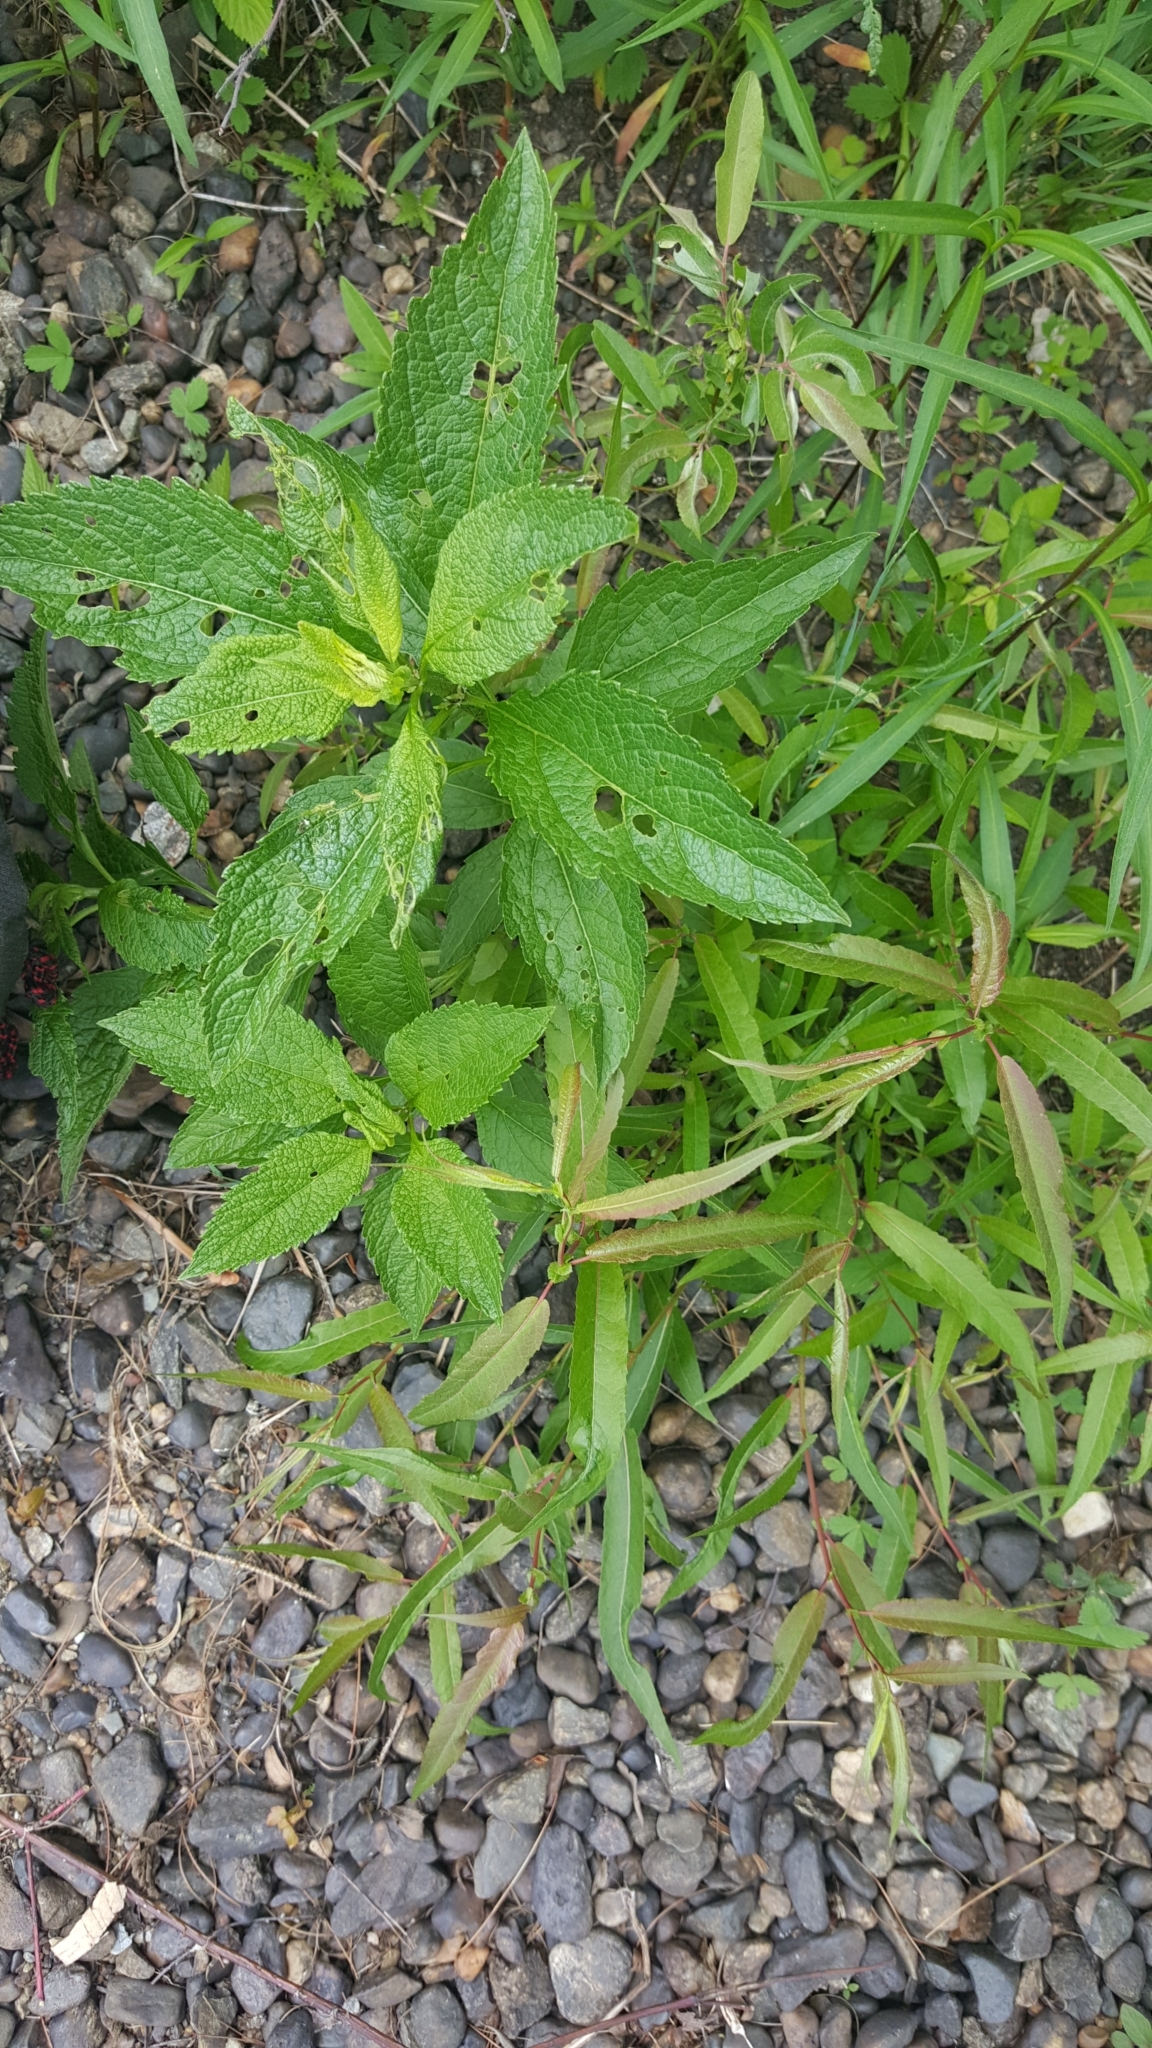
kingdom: Plantae
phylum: Tracheophyta
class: Magnoliopsida
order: Asterales
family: Asteraceae
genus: Eutrochium
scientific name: Eutrochium maculatum
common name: Spotted joe pye weed
